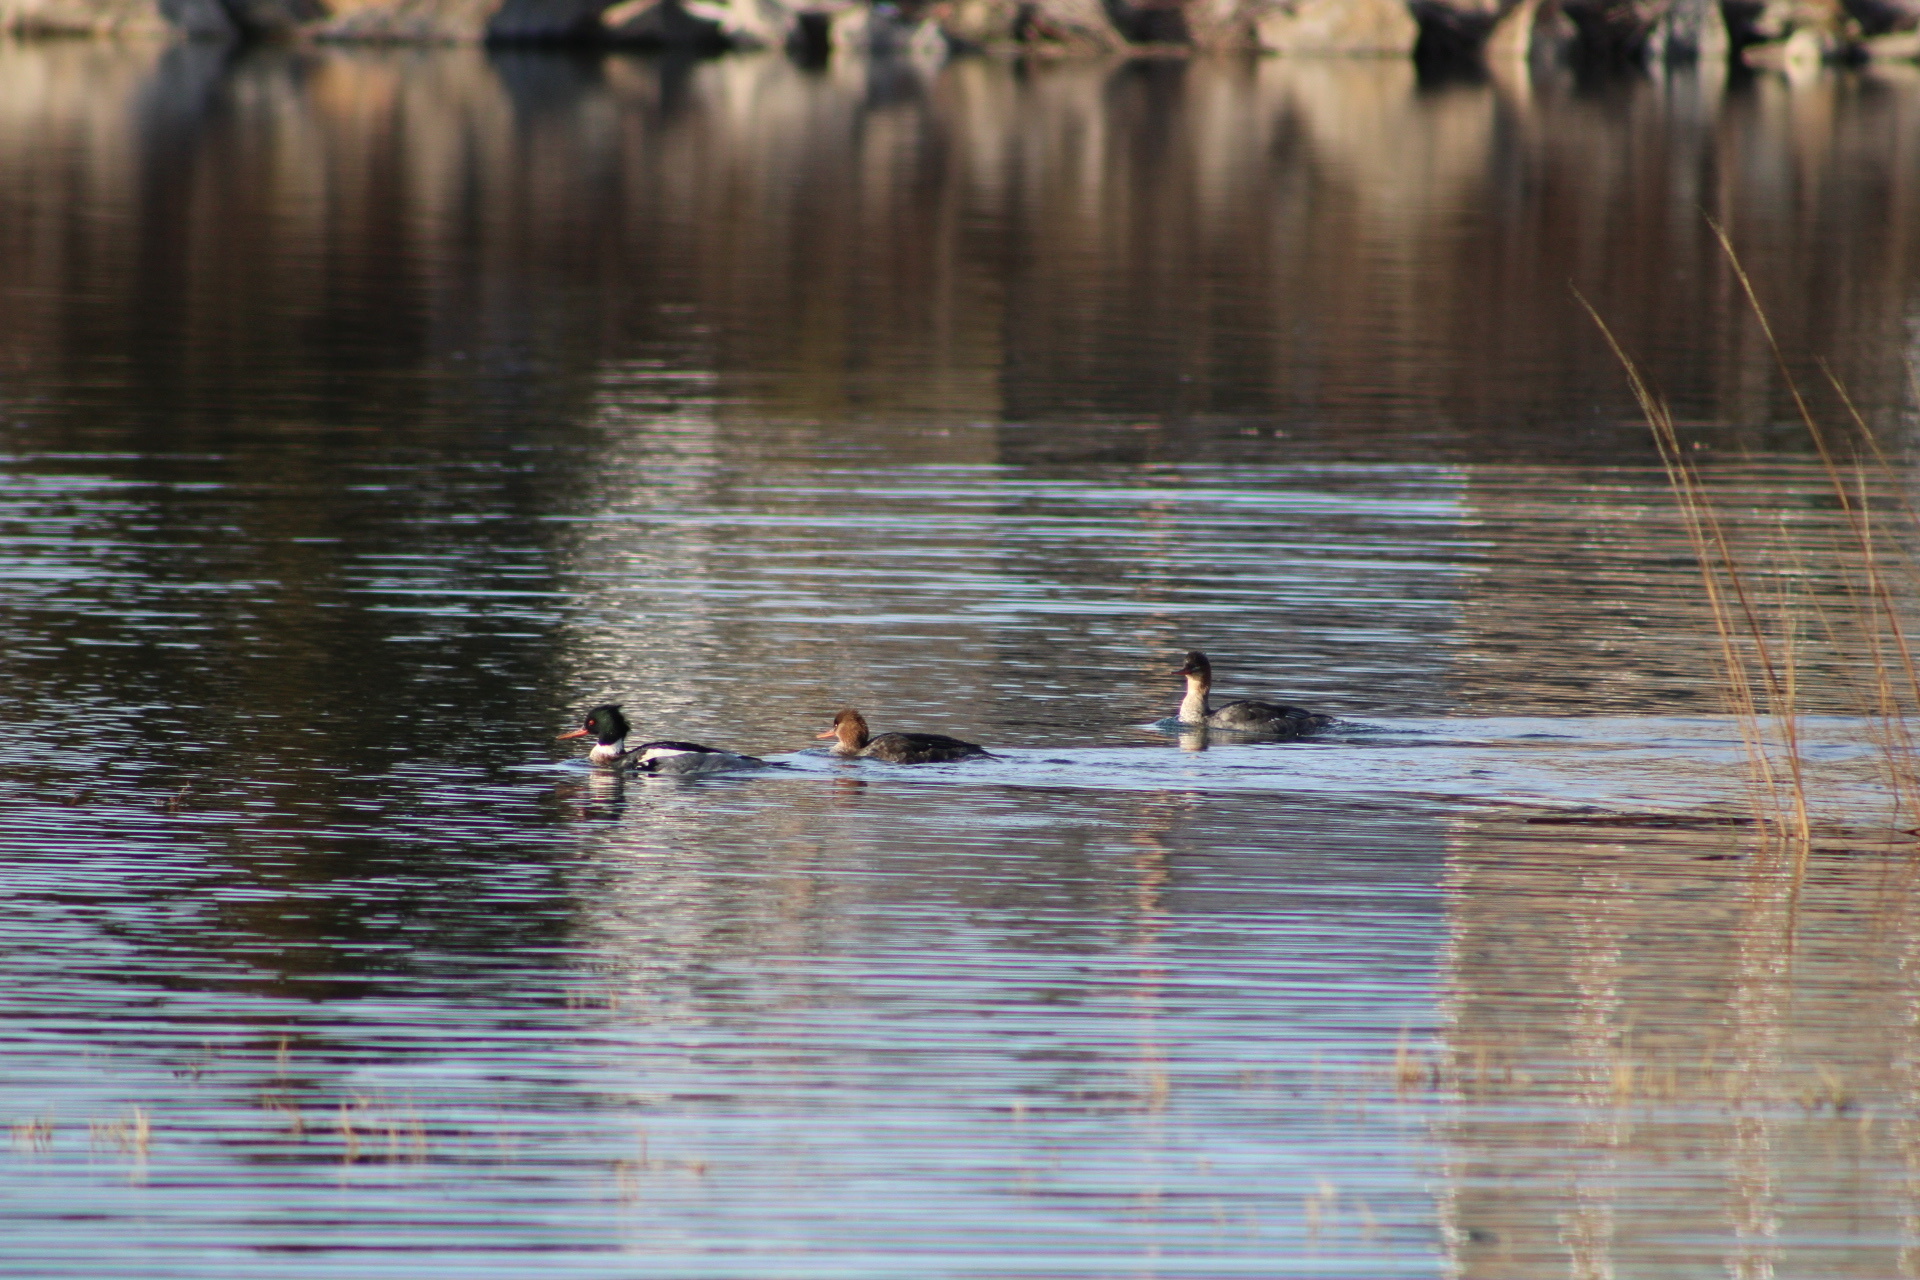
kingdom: Animalia
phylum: Chordata
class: Aves
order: Anseriformes
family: Anatidae
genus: Mergus
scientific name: Mergus serrator
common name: Red-breasted merganser
